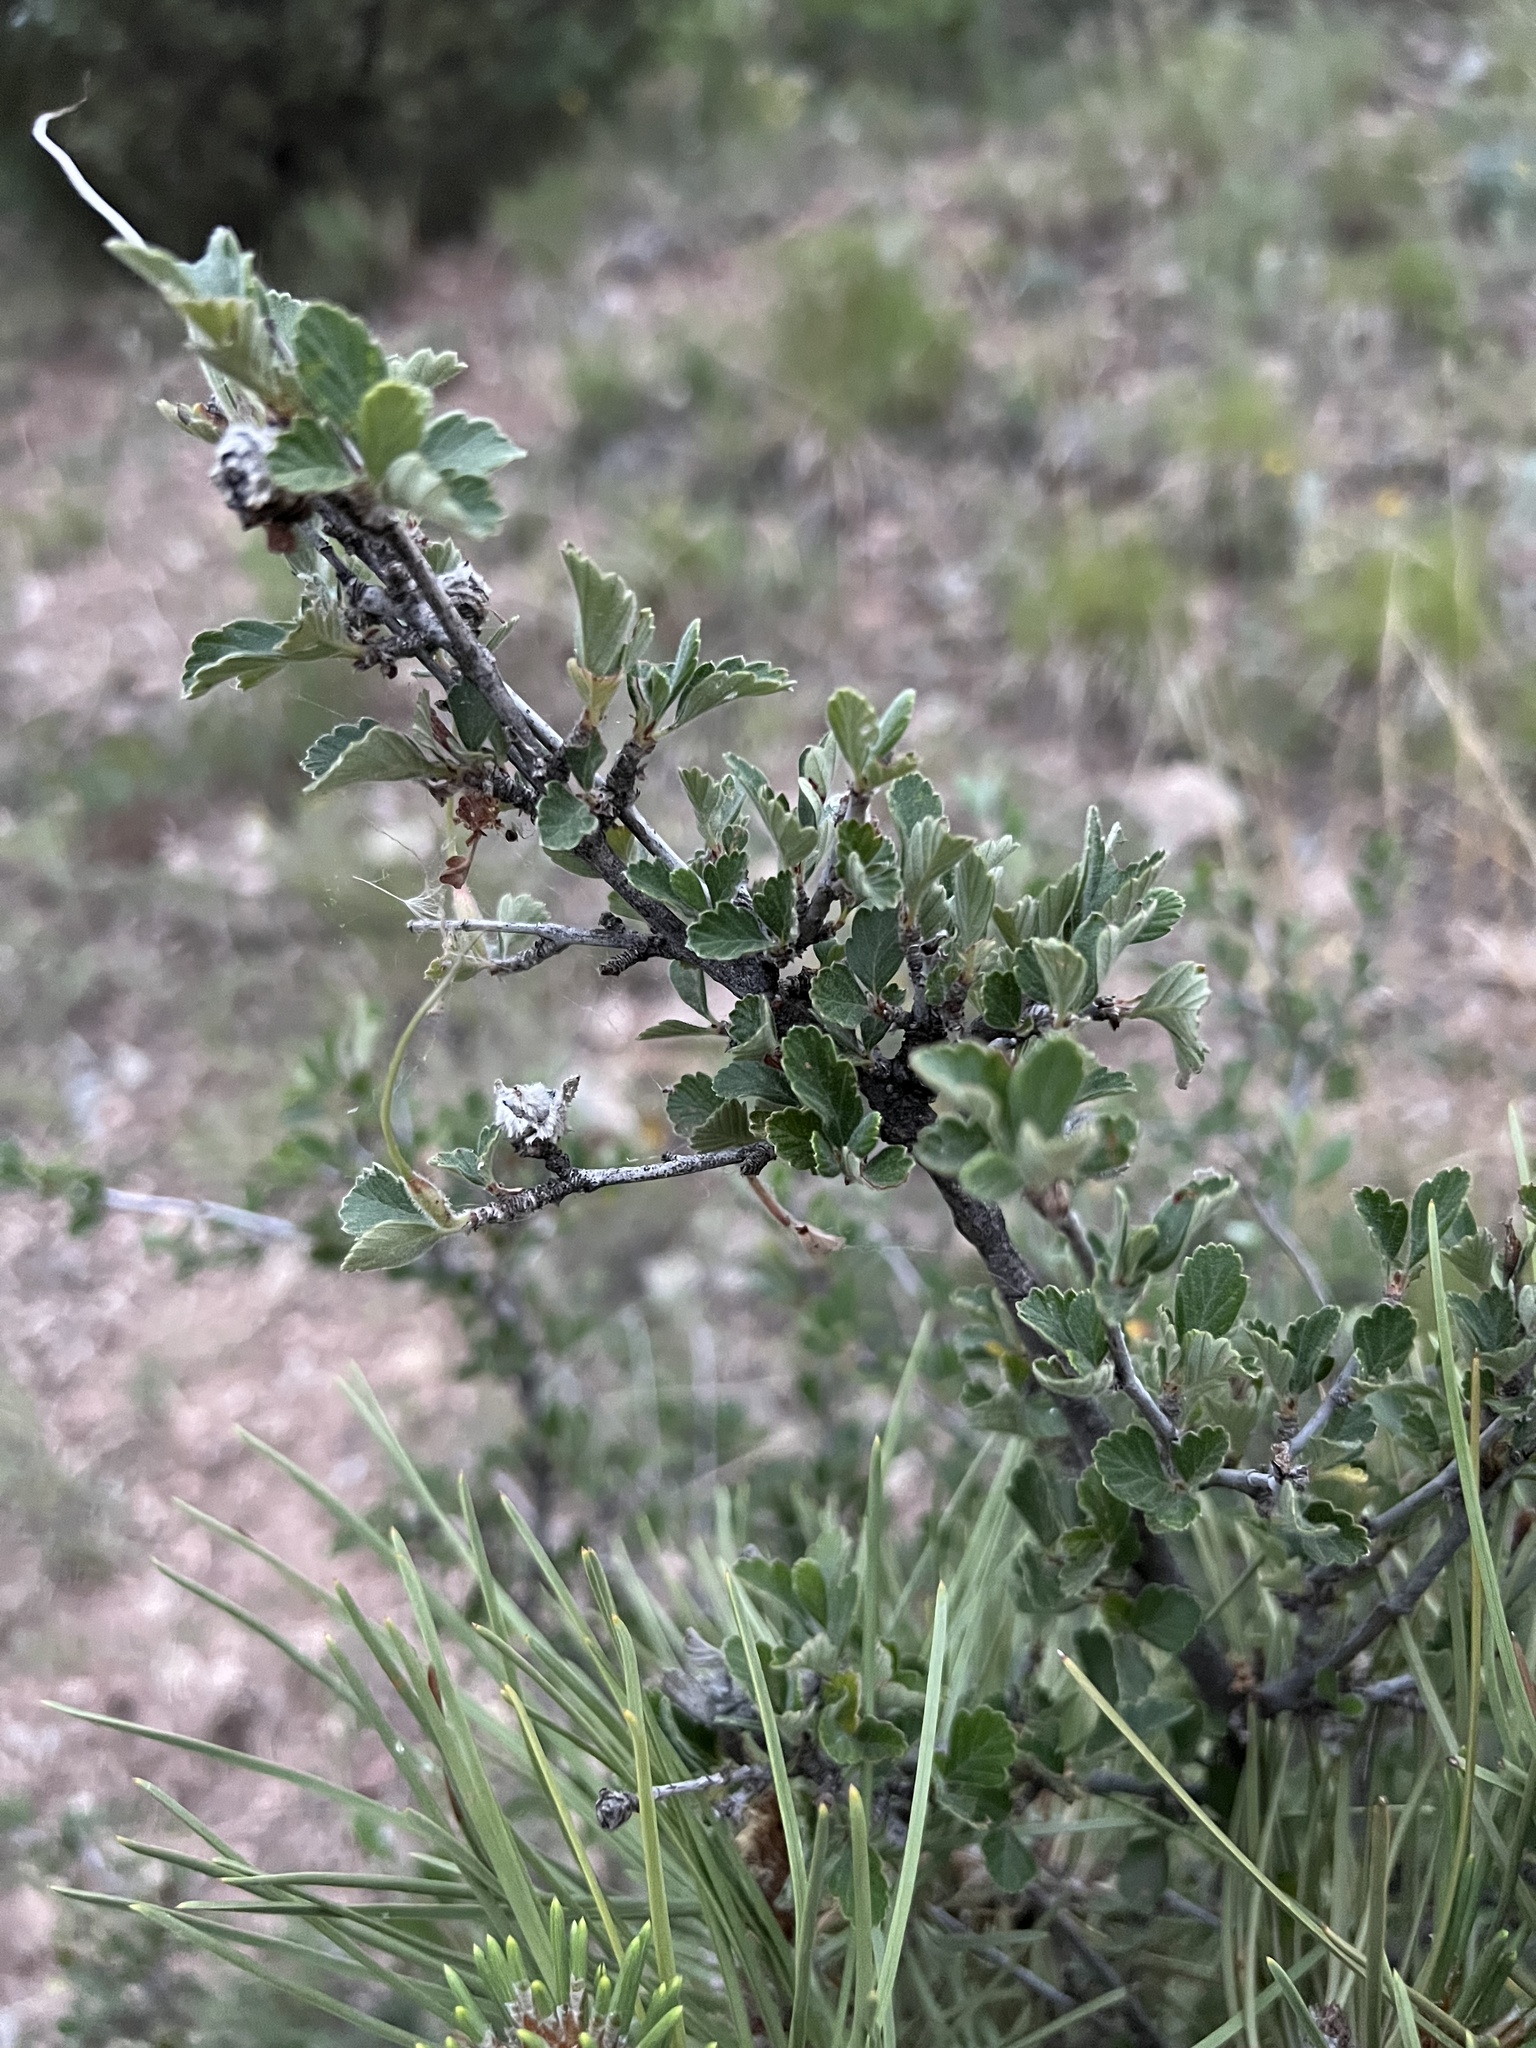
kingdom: Plantae
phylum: Tracheophyta
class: Magnoliopsida
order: Rosales
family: Rosaceae
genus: Cercocarpus
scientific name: Cercocarpus montanus
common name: Alder-leaf cercocarpus
